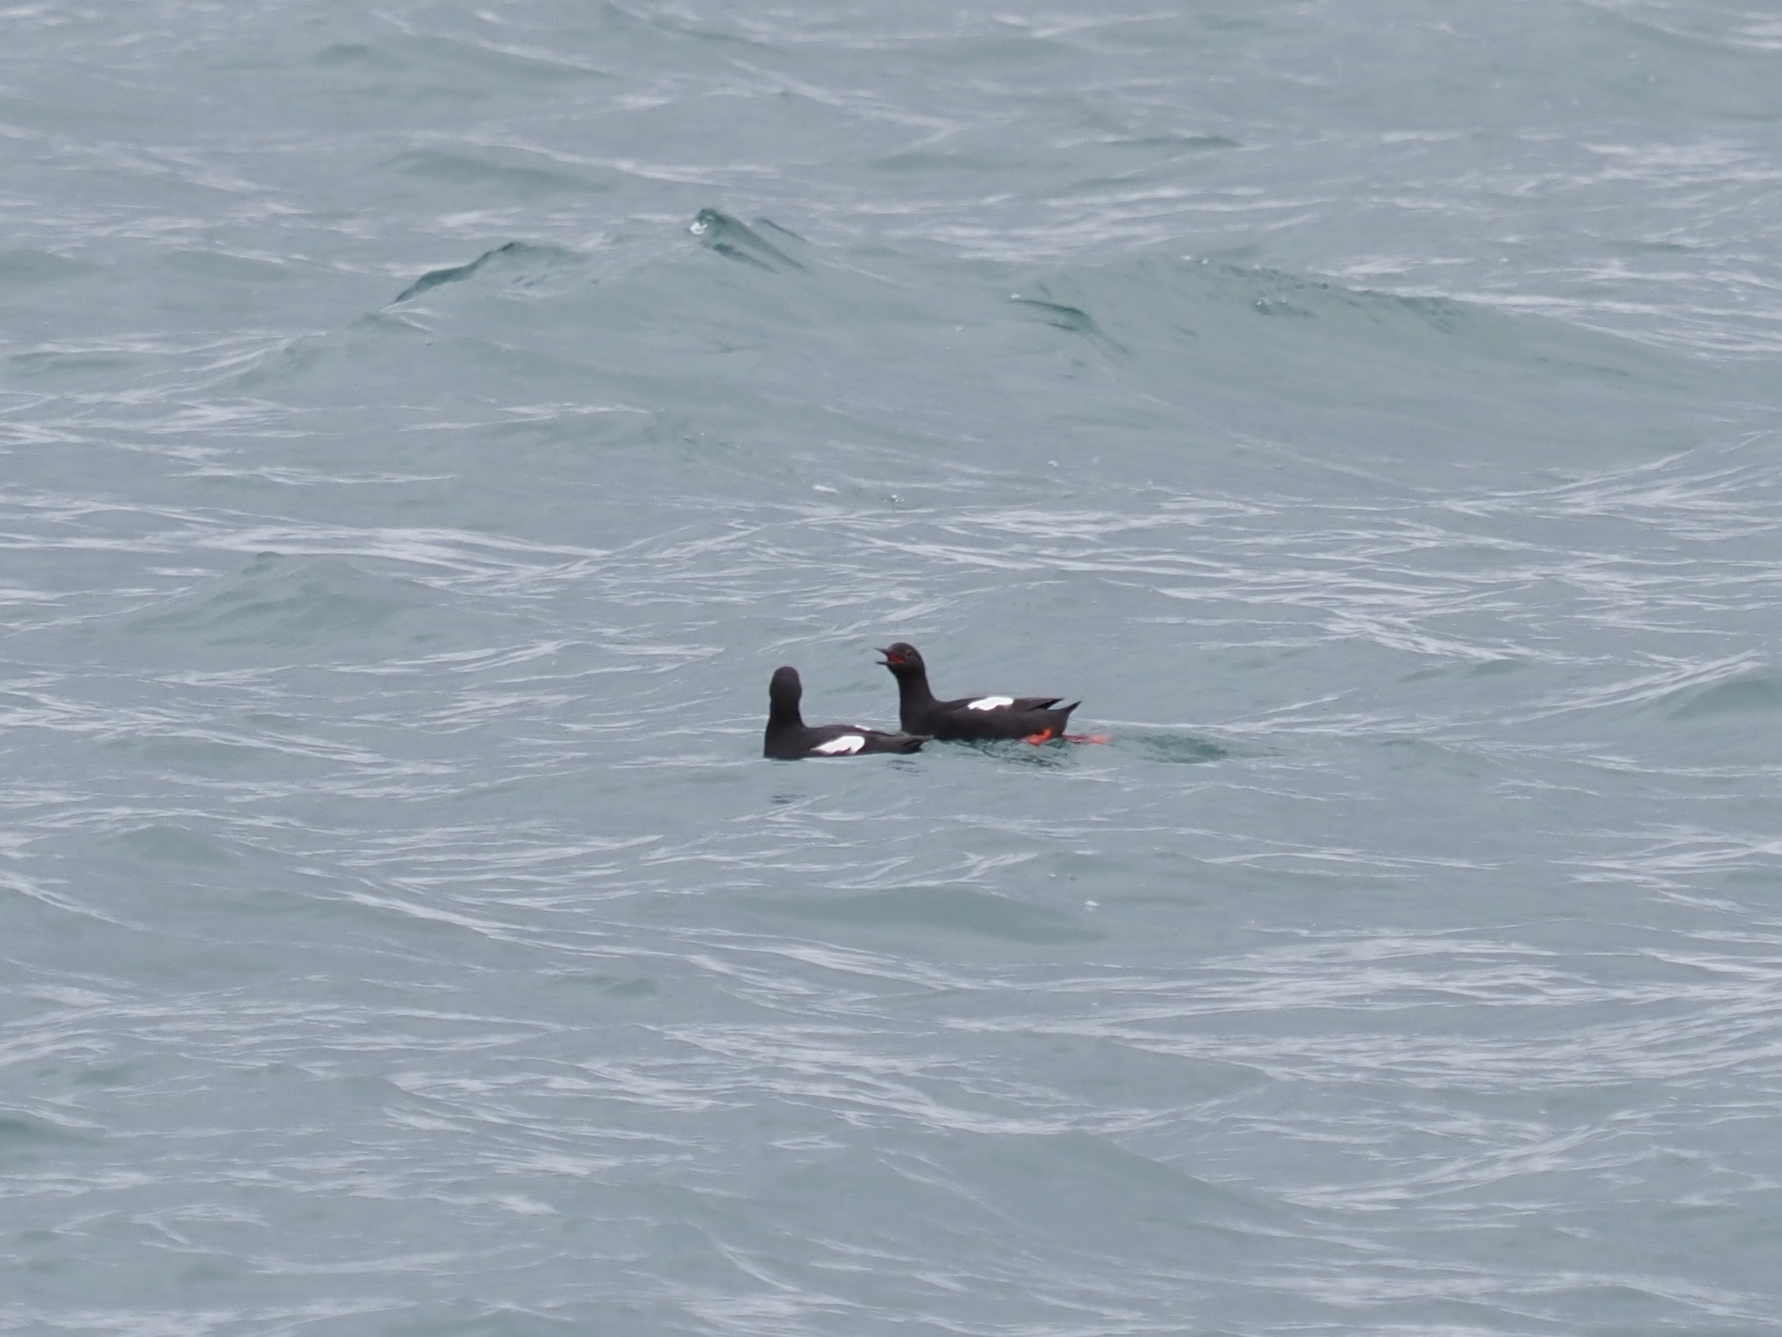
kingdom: Animalia
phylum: Chordata
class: Aves
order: Charadriiformes
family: Alcidae
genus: Cepphus
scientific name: Cepphus columba
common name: Pigeon guillemot
